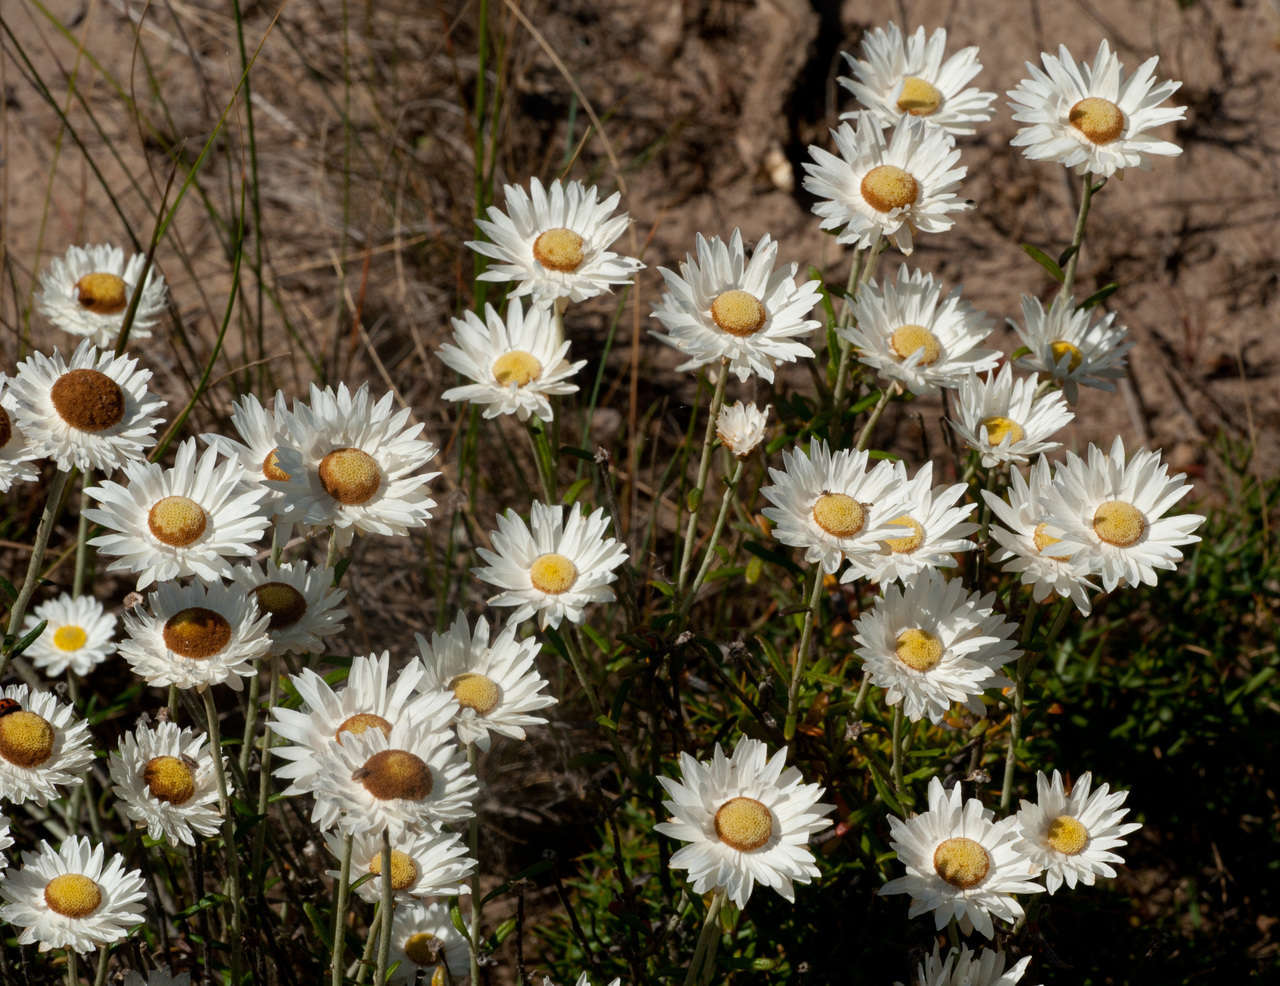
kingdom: Plantae
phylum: Tracheophyta
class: Magnoliopsida
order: Asterales
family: Asteraceae
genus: Argentipallium
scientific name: Argentipallium obtusifolium
